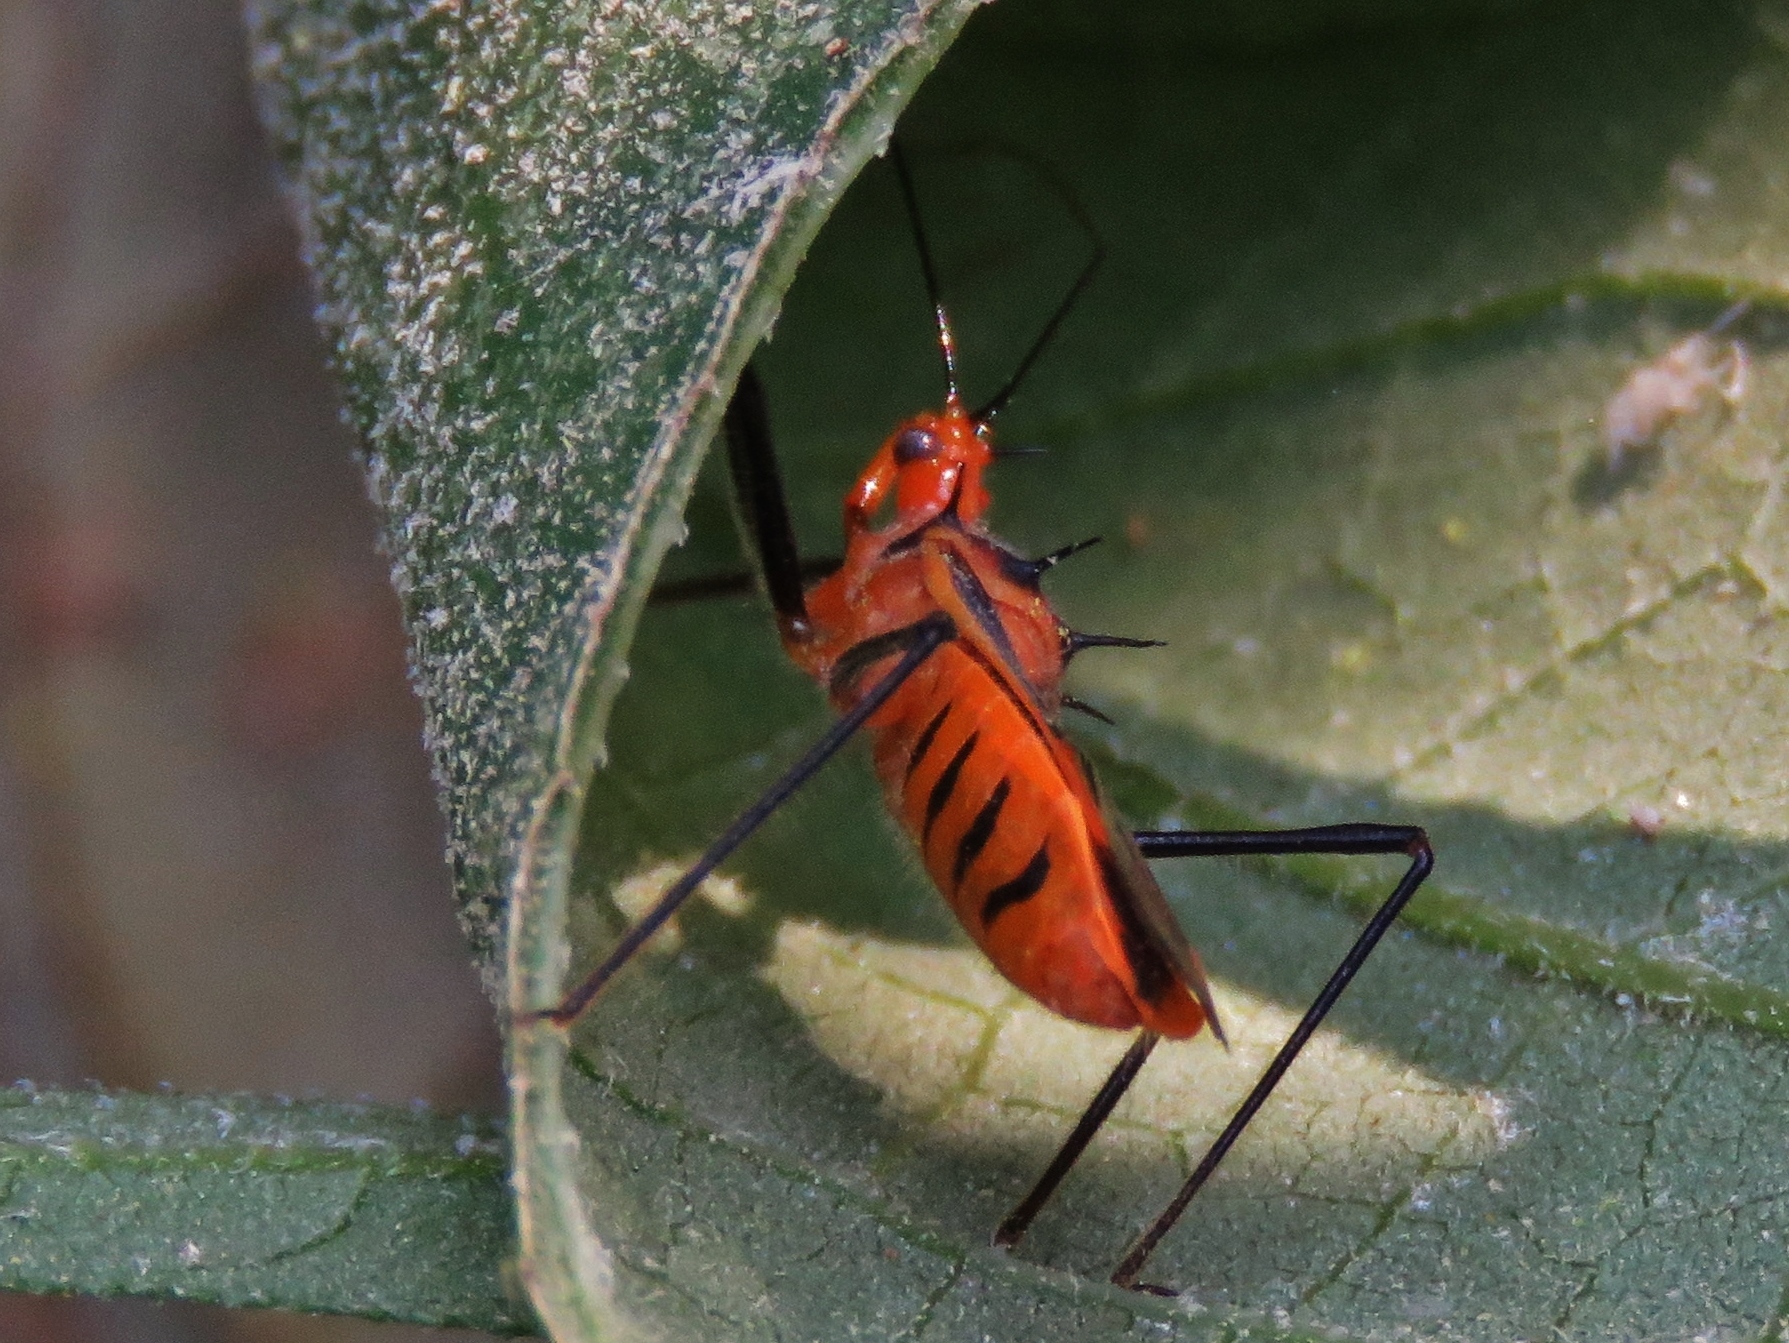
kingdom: Animalia
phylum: Arthropoda
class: Insecta
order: Hemiptera
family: Reduviidae
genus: Repipta
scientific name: Repipta taurus
